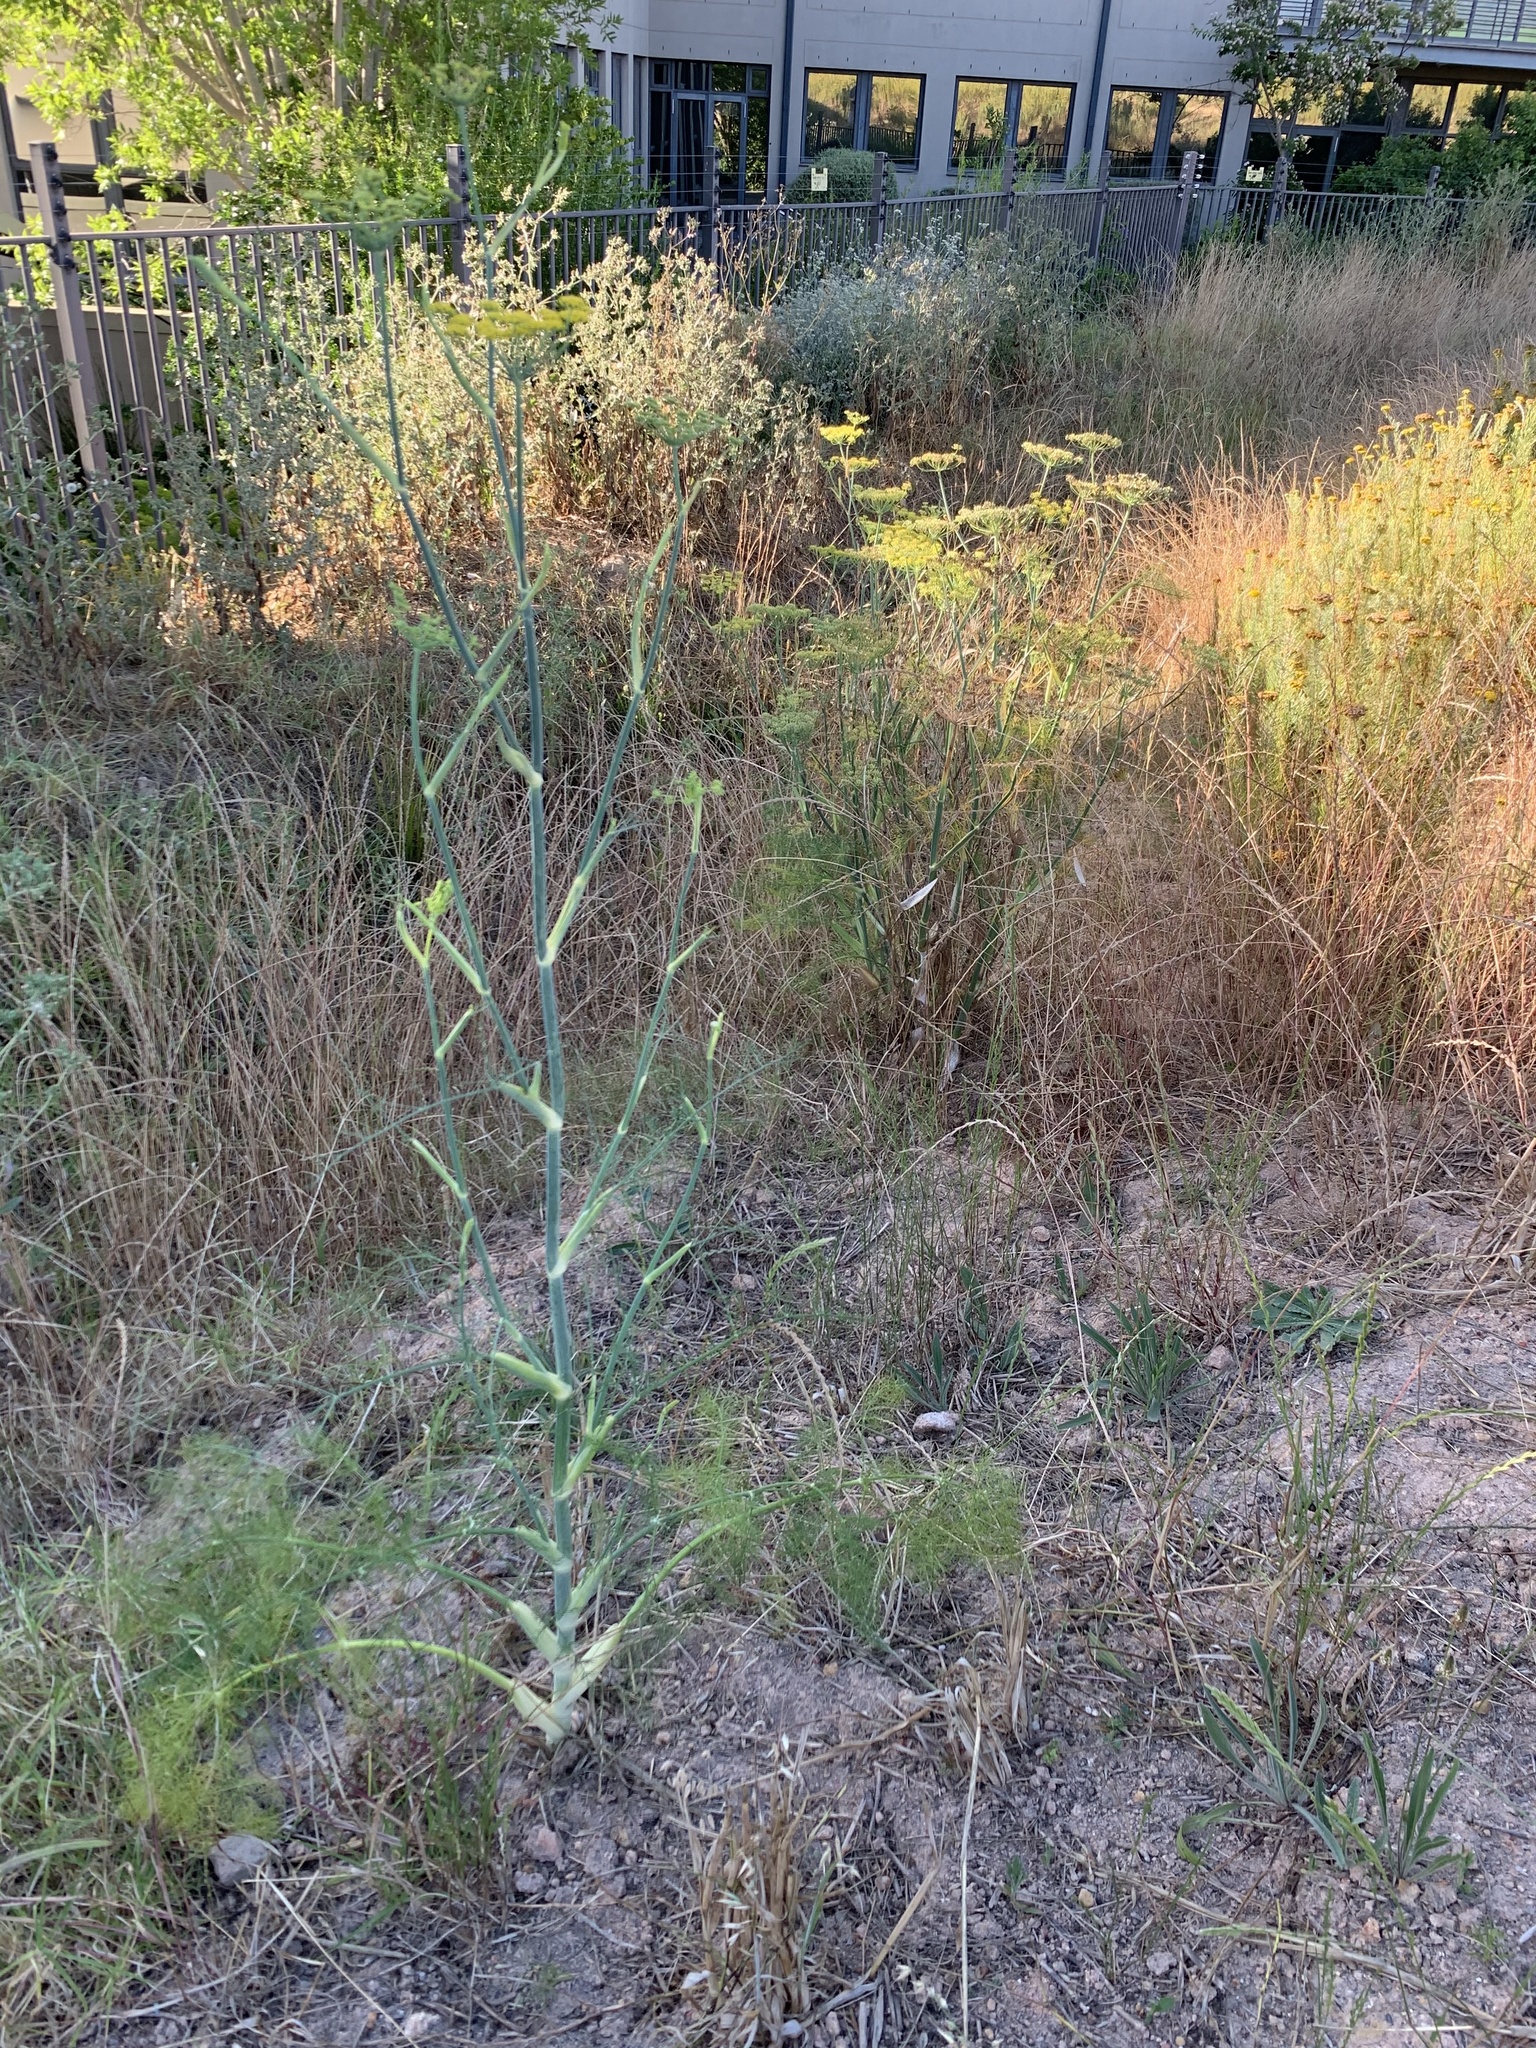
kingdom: Plantae
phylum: Tracheophyta
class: Magnoliopsida
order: Apiales
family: Apiaceae
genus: Foeniculum
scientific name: Foeniculum vulgare
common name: Fennel
